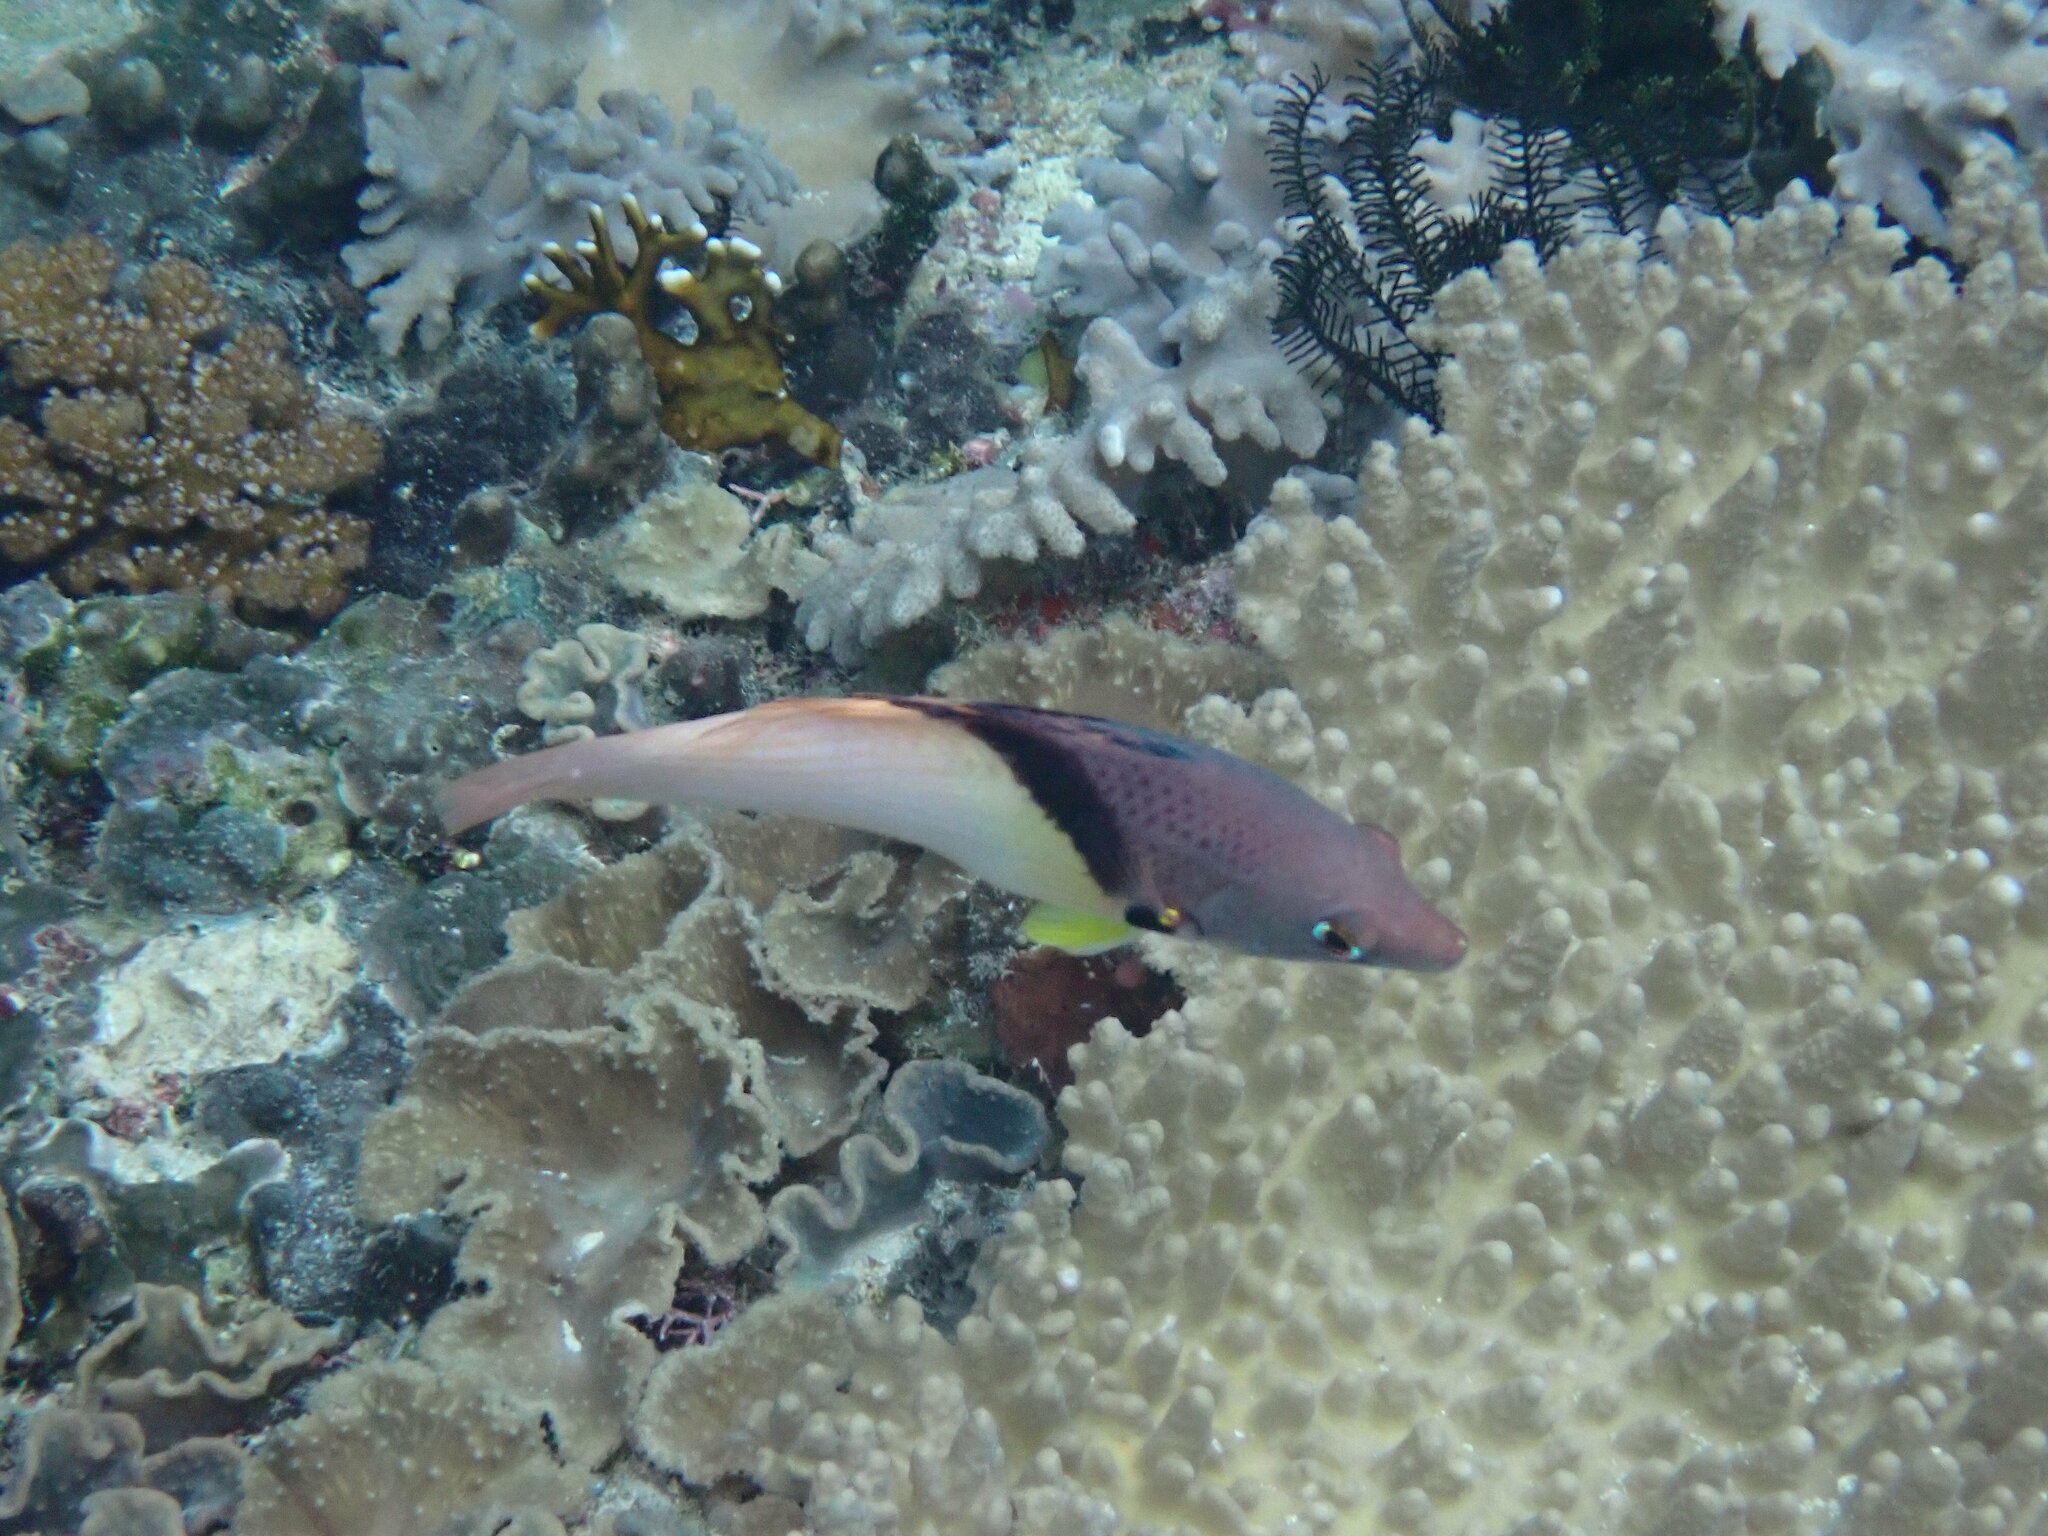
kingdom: Animalia
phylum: Chordata
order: Perciformes
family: Labridae
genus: Bodianus
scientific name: Bodianus mesothorax
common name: Coral hogfish
